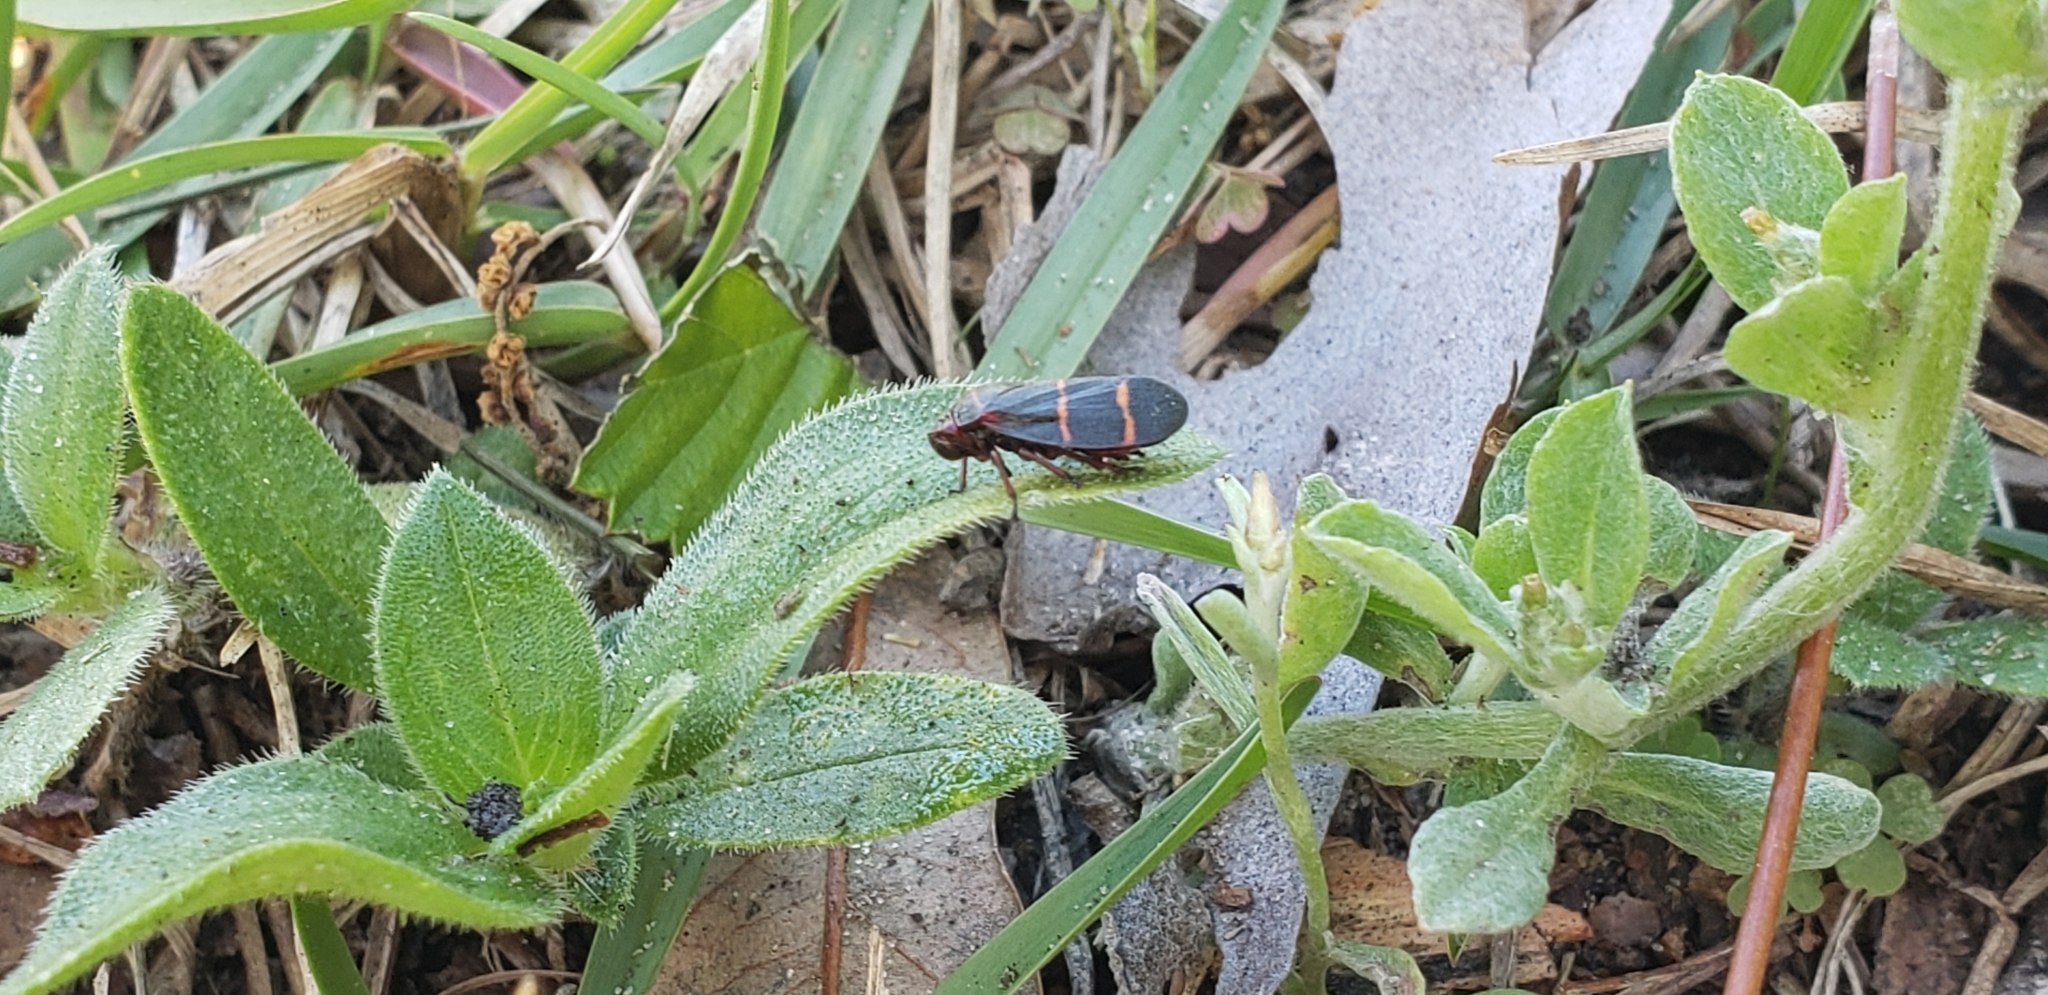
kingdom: Animalia
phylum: Arthropoda
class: Insecta
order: Hemiptera
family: Cercopidae
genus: Prosapia
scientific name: Prosapia bicincta
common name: Twolined spittlebug
